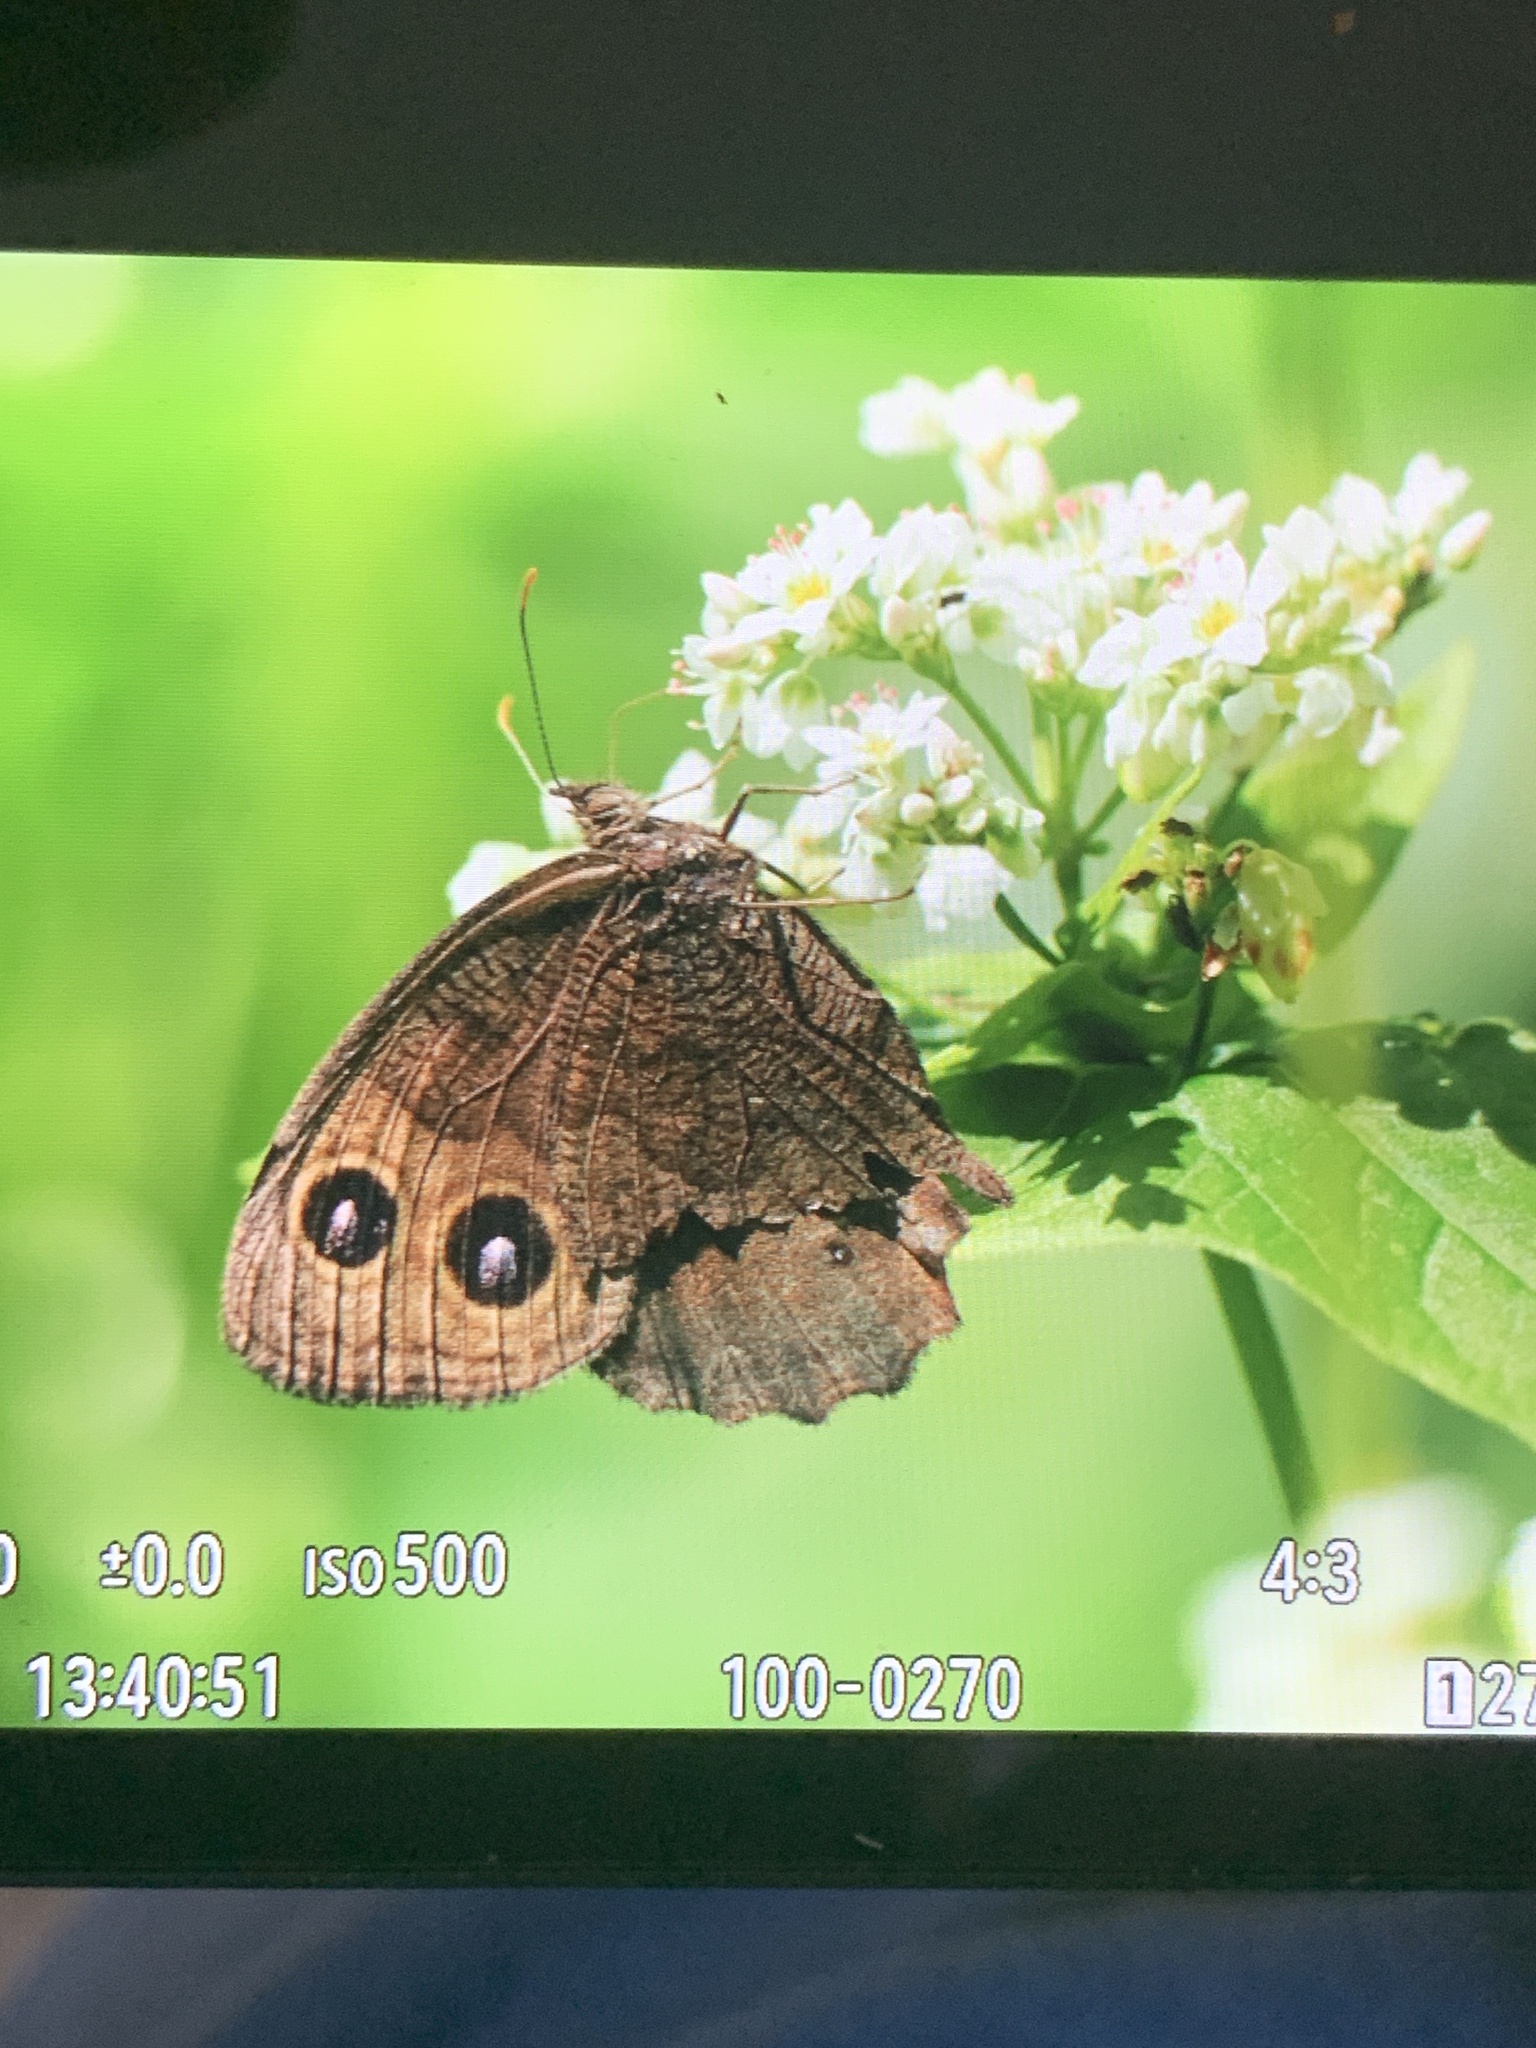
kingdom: Animalia
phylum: Arthropoda
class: Insecta
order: Lepidoptera
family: Nymphalidae
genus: Cercyonis
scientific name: Cercyonis pegala
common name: Common wood-nymph
